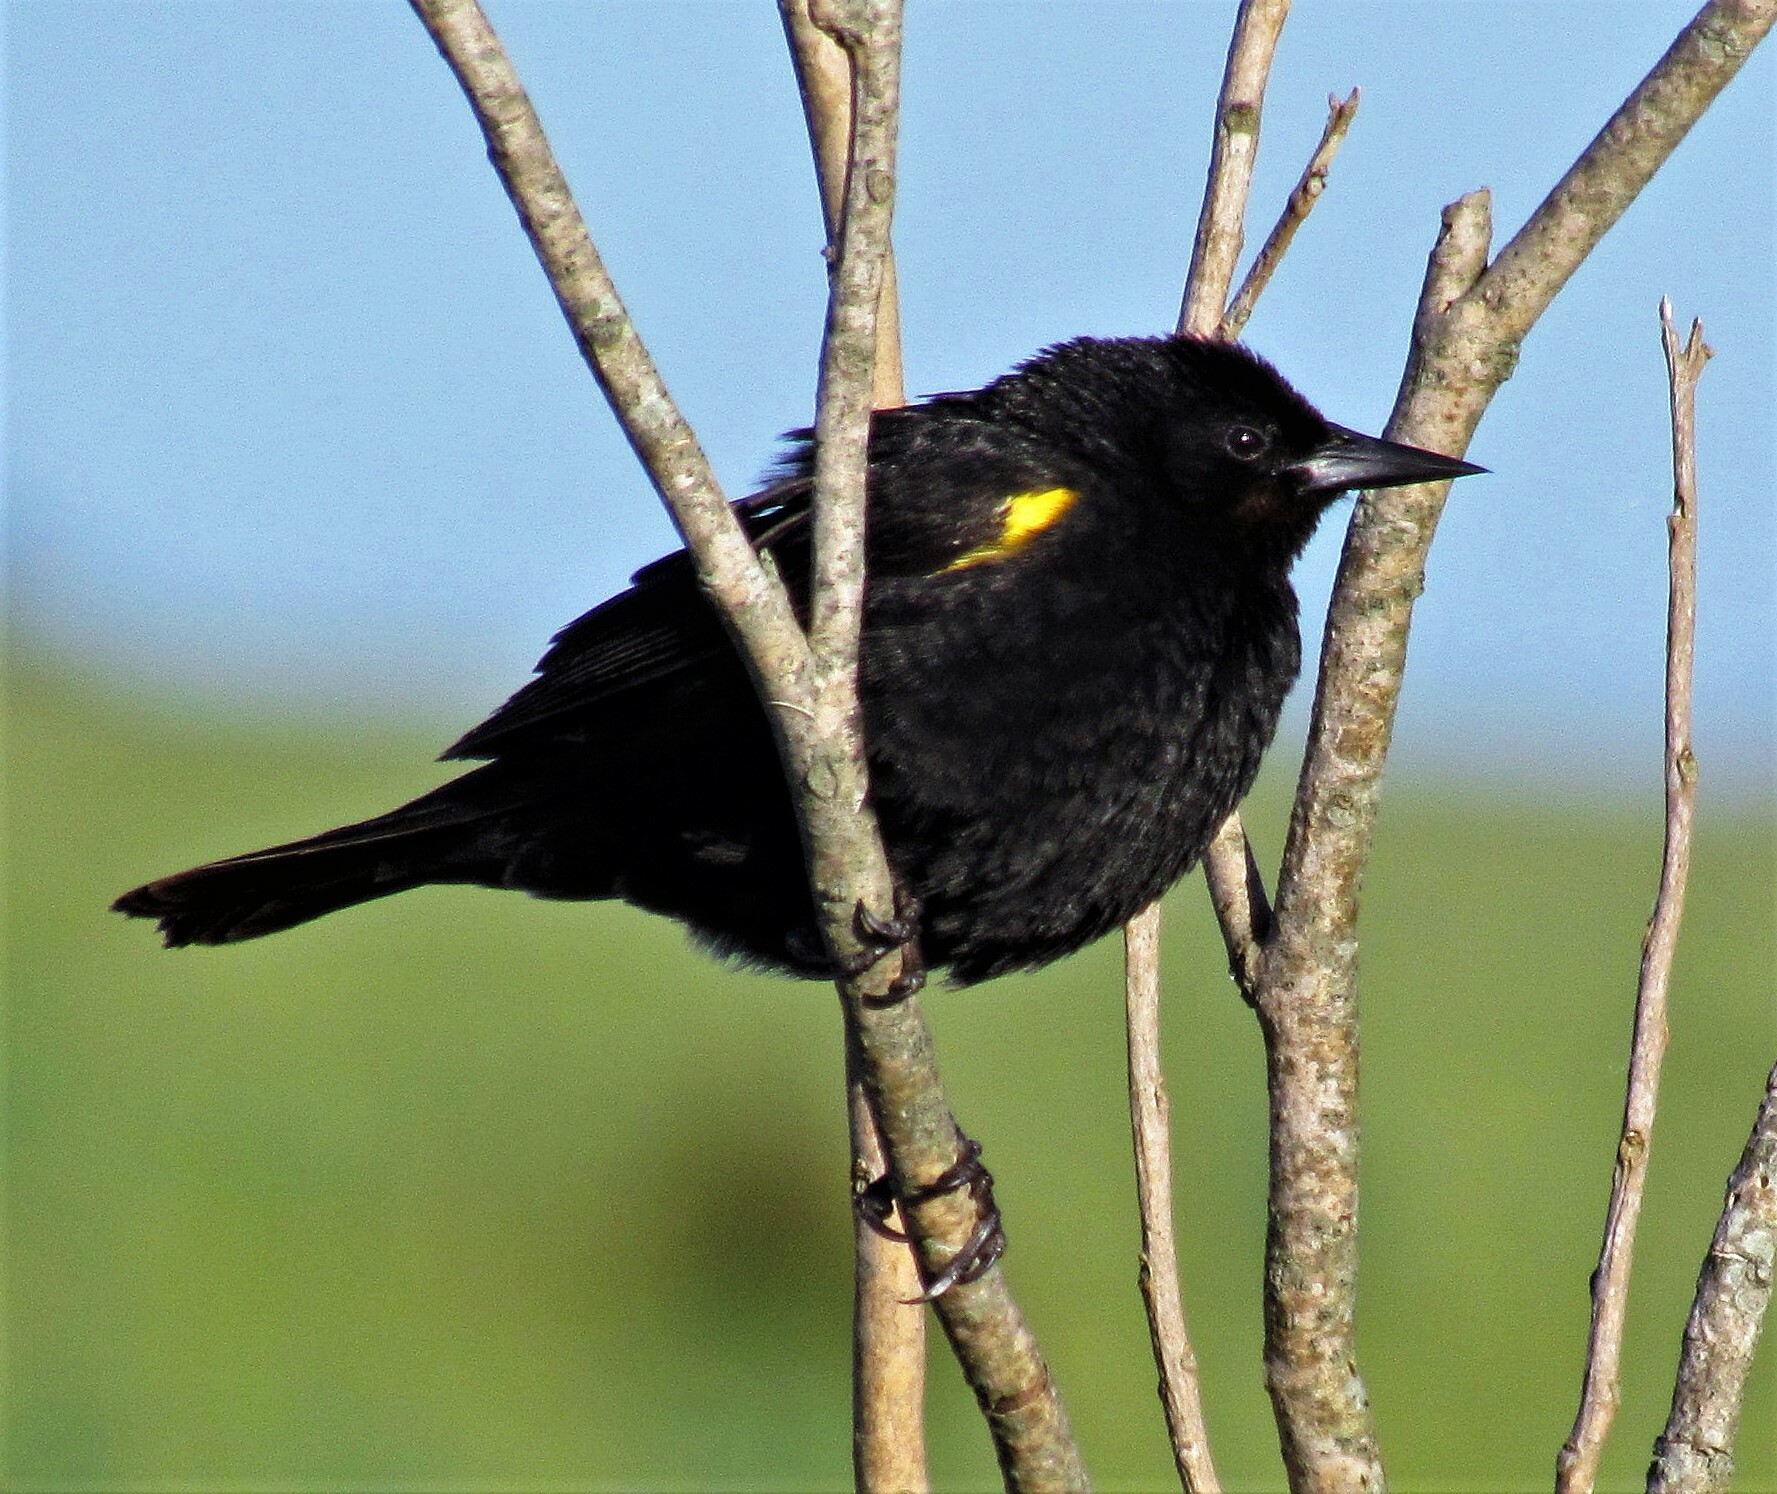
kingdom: Animalia
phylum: Chordata
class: Aves
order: Passeriformes
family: Icteridae
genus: Agelasticus
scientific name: Agelasticus thilius
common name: Yellow-winged blackbird
